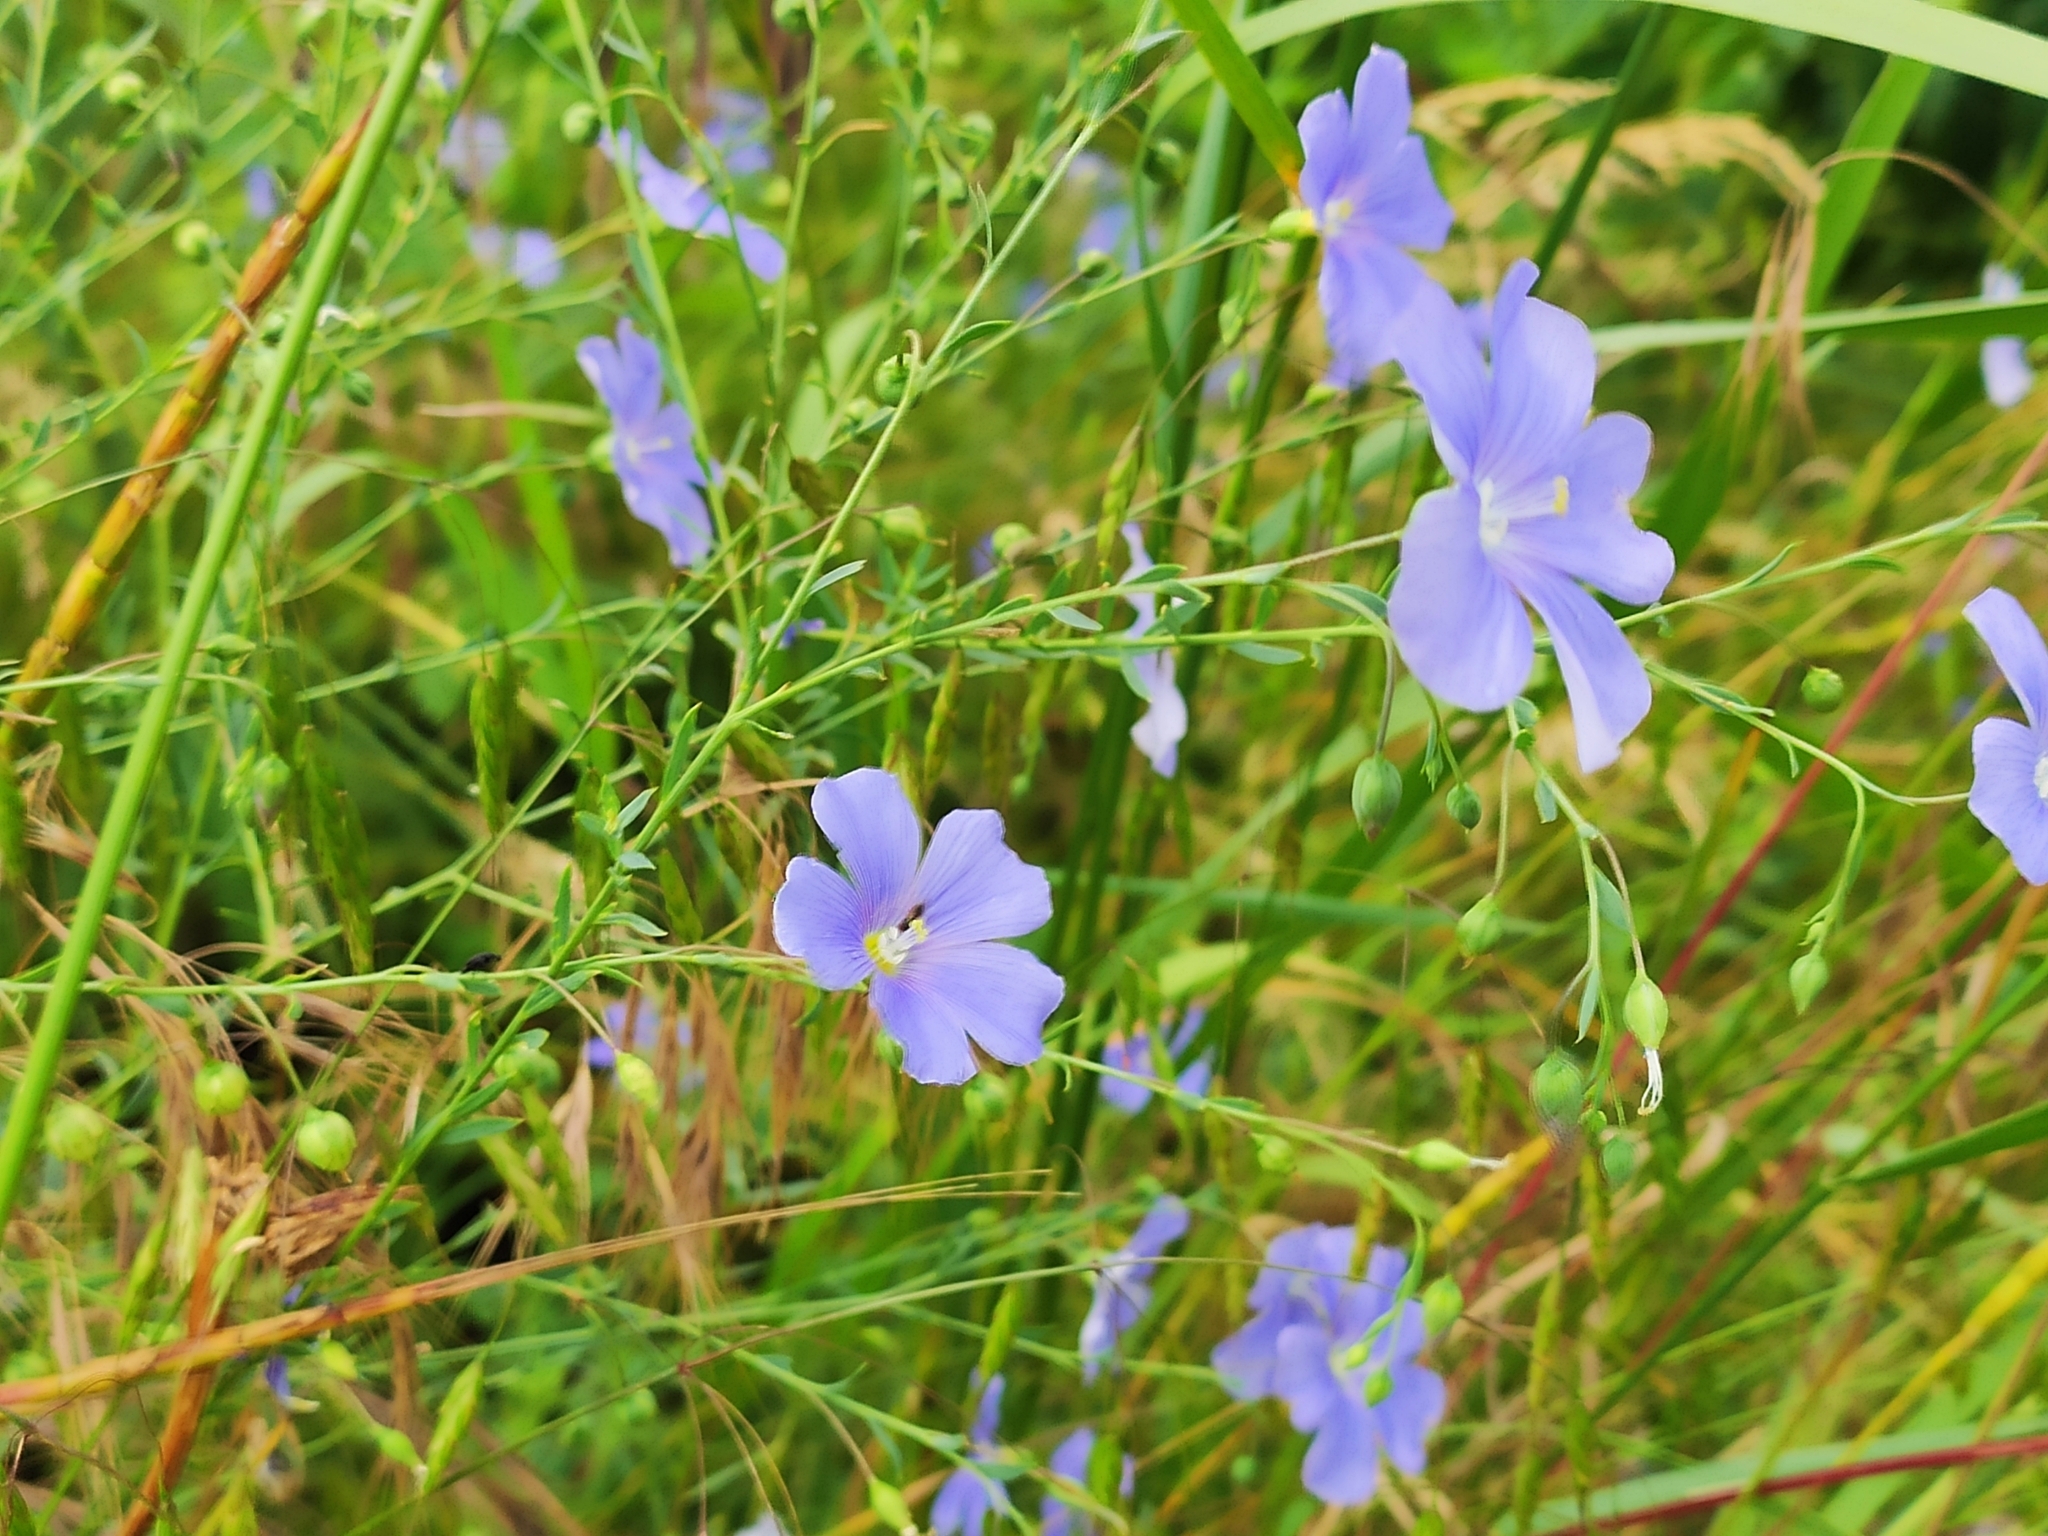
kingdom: Plantae
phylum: Tracheophyta
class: Magnoliopsida
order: Malpighiales
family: Linaceae
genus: Linum
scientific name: Linum austriacum
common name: Austrian flax
